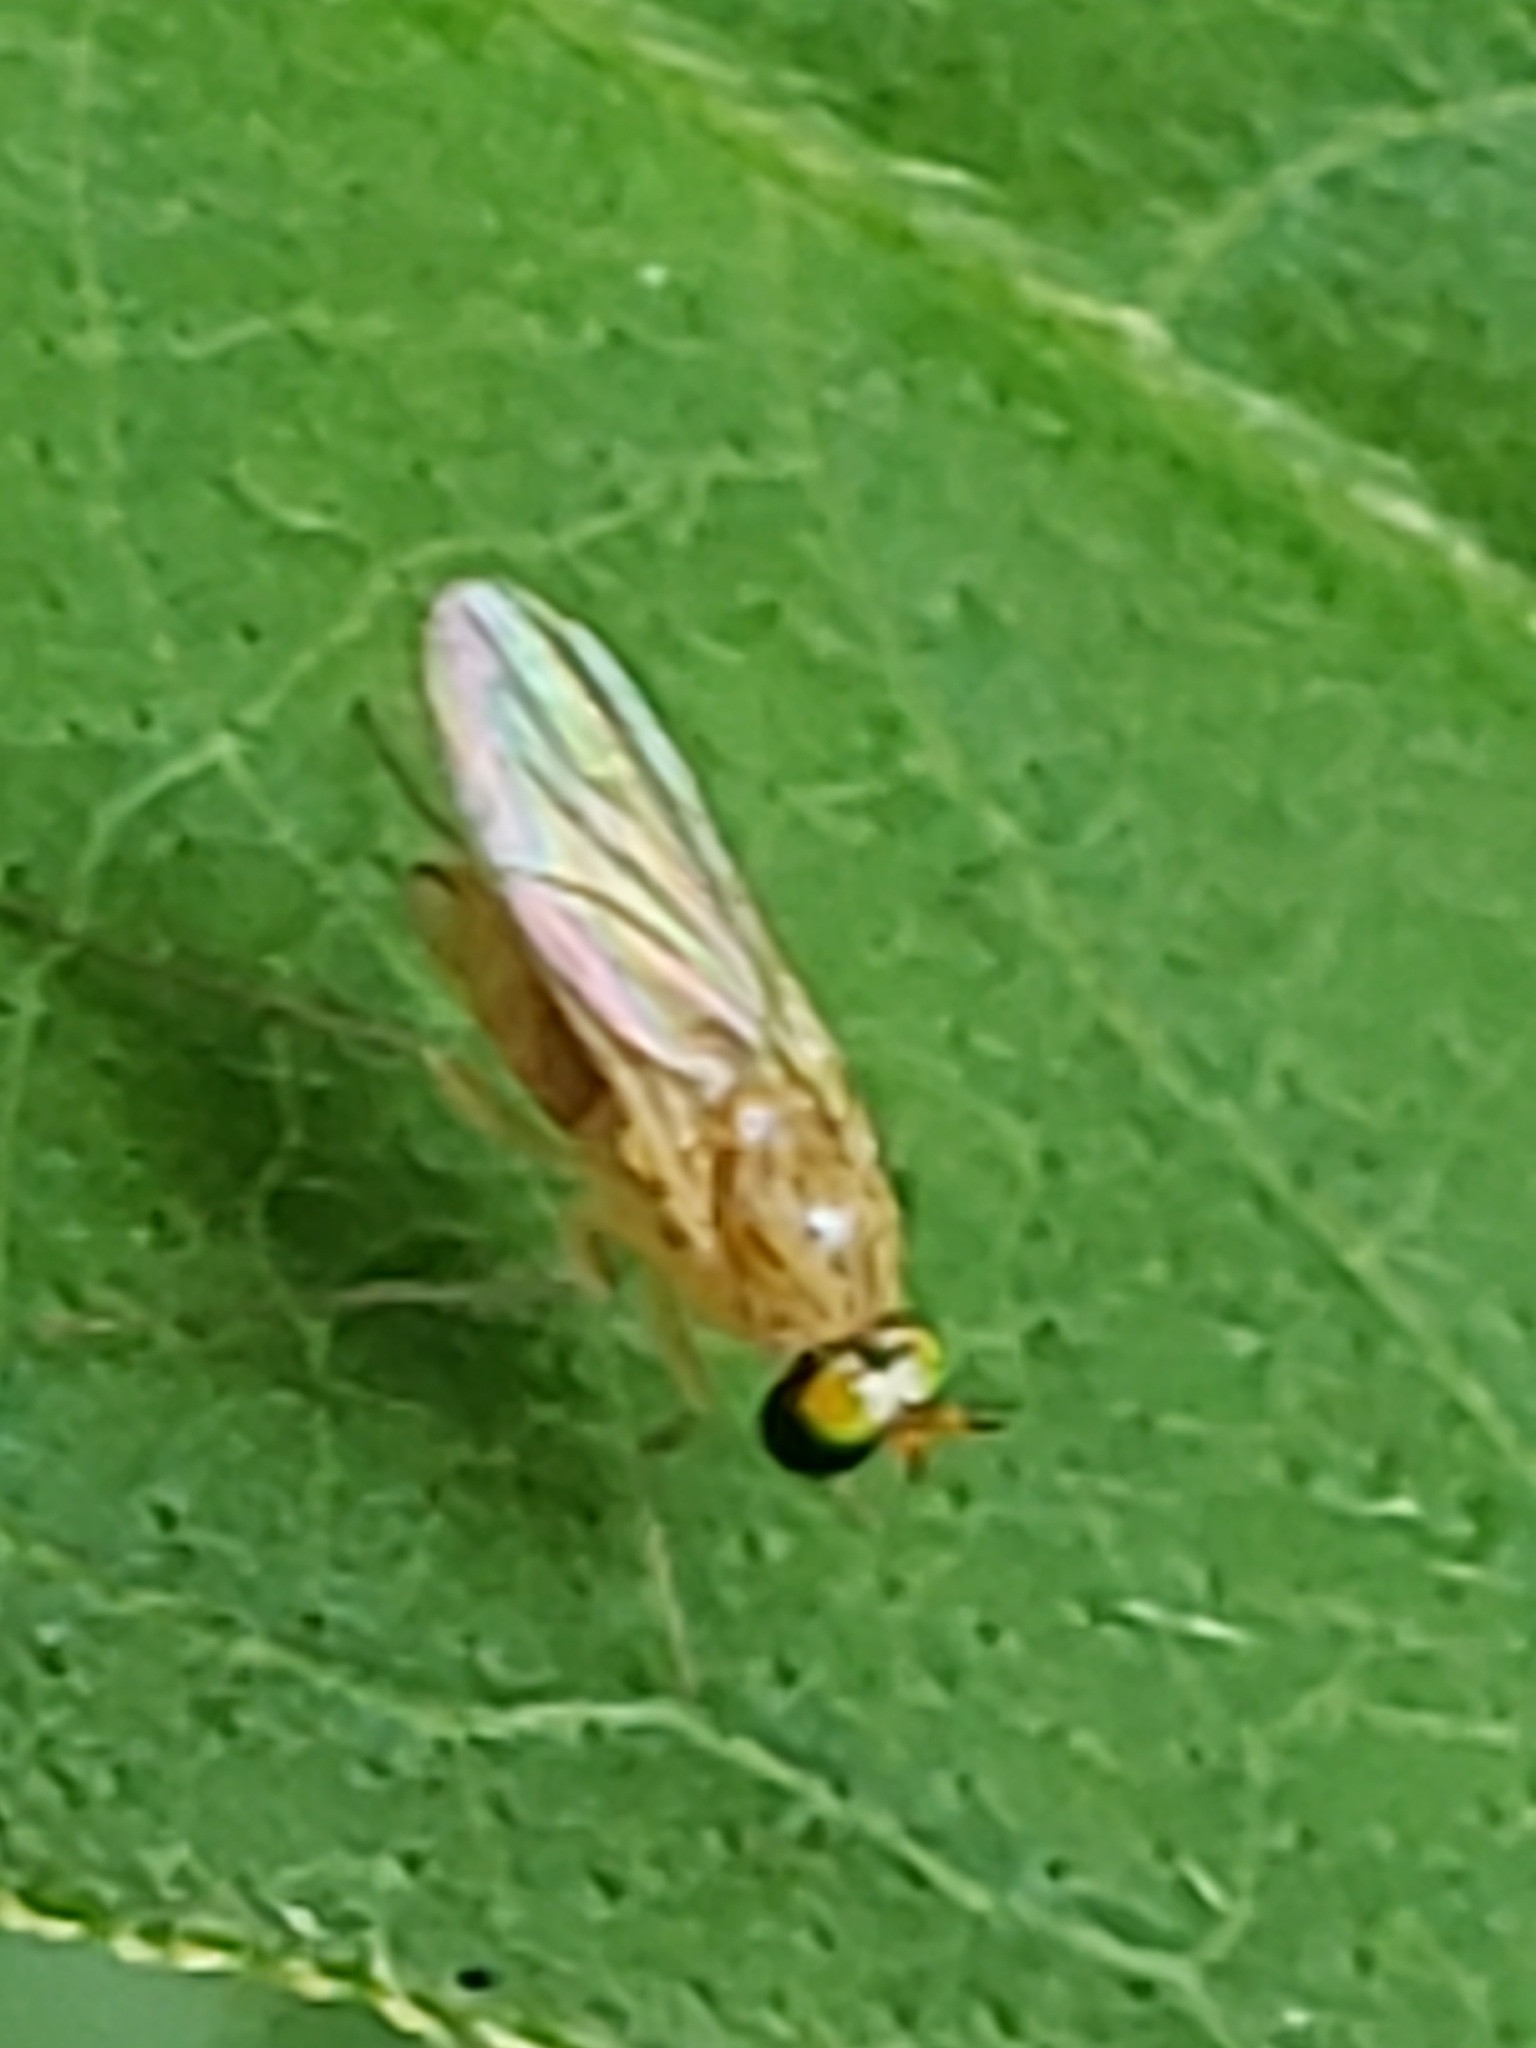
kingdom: Animalia
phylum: Arthropoda
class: Insecta
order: Diptera
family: Dolichopodidae
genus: Gymnopternus
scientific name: Gymnopternus flavus
